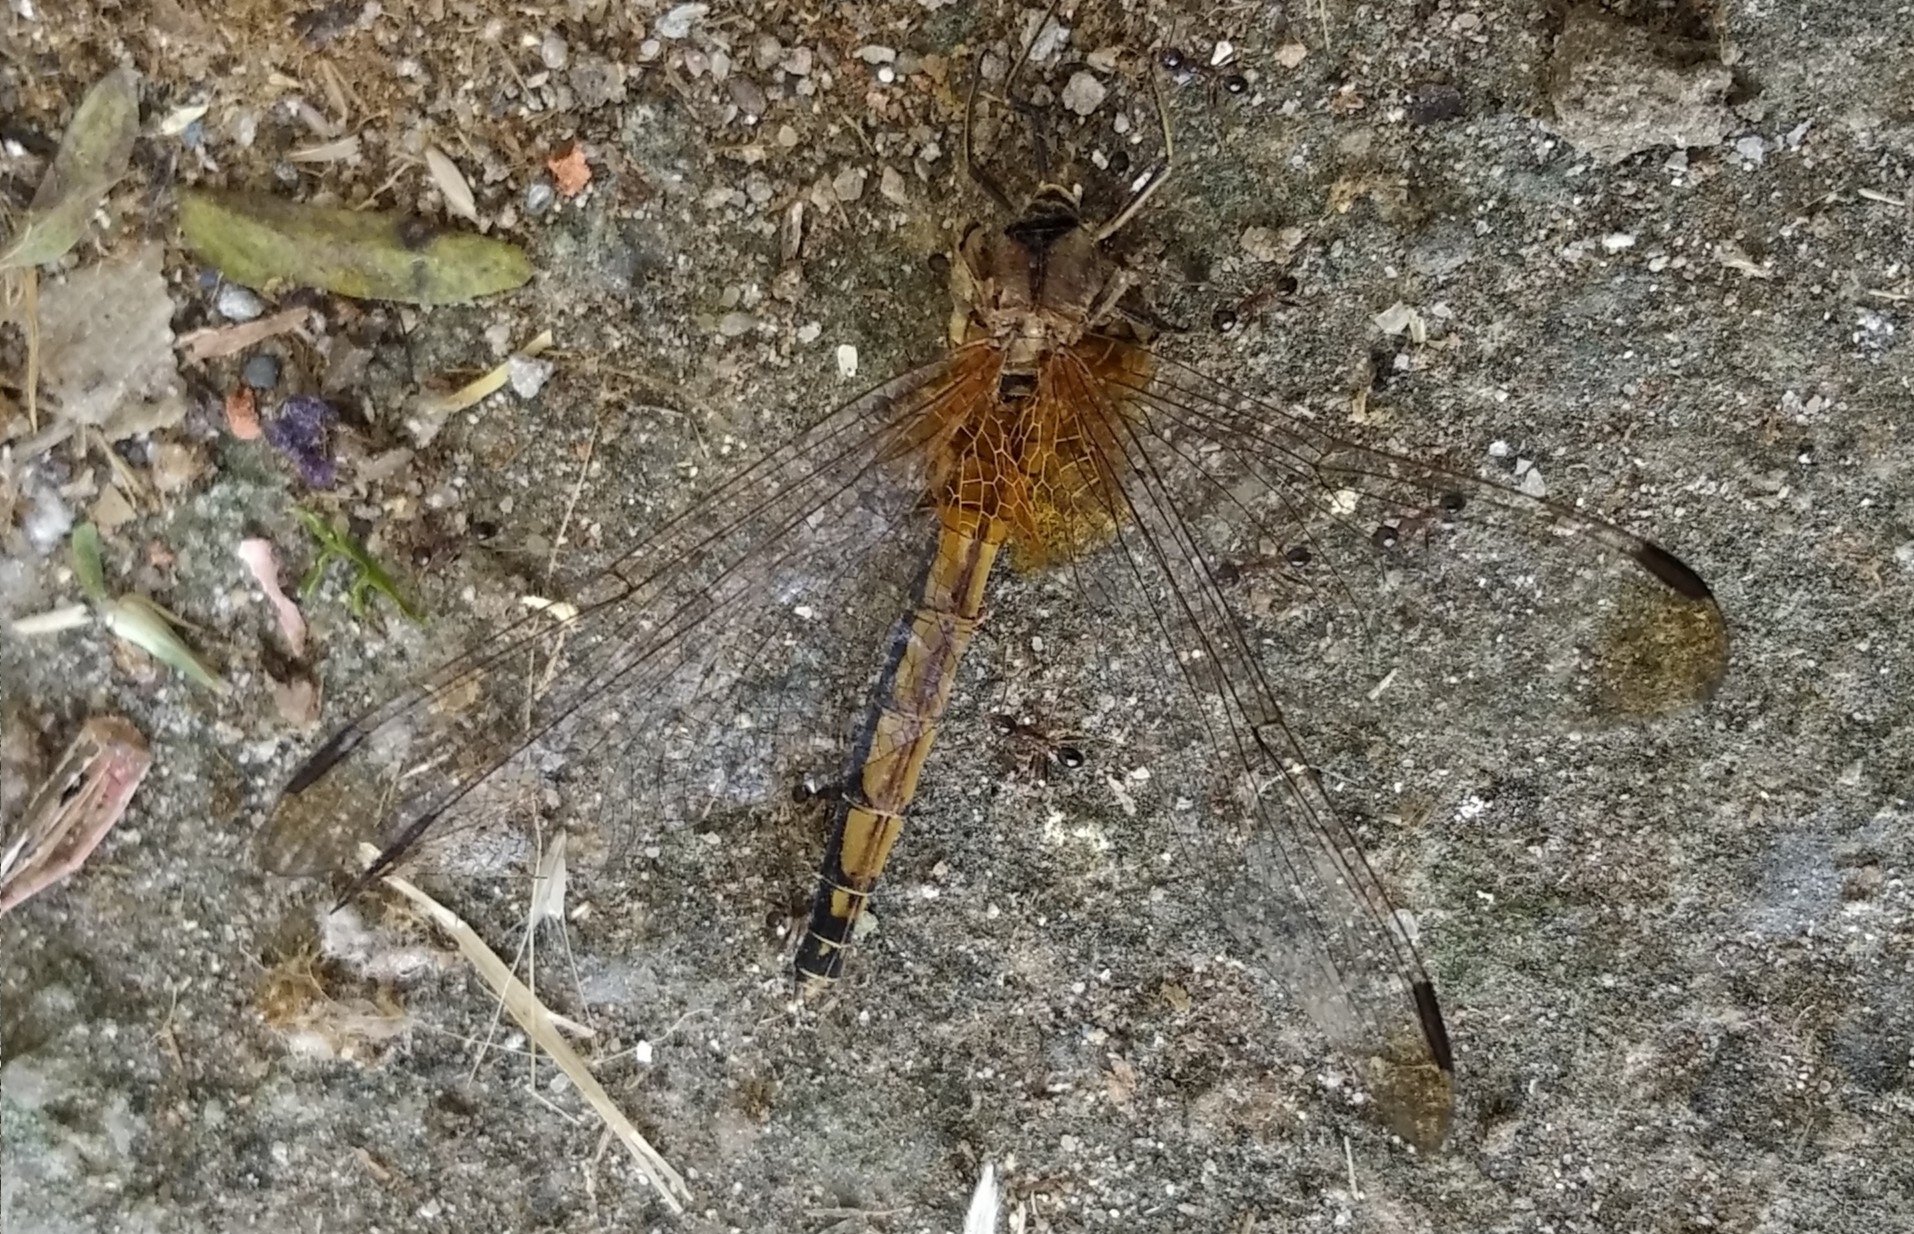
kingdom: Animalia
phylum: Arthropoda
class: Insecta
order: Odonata
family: Libellulidae
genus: Trithemis
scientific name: Trithemis aurora
